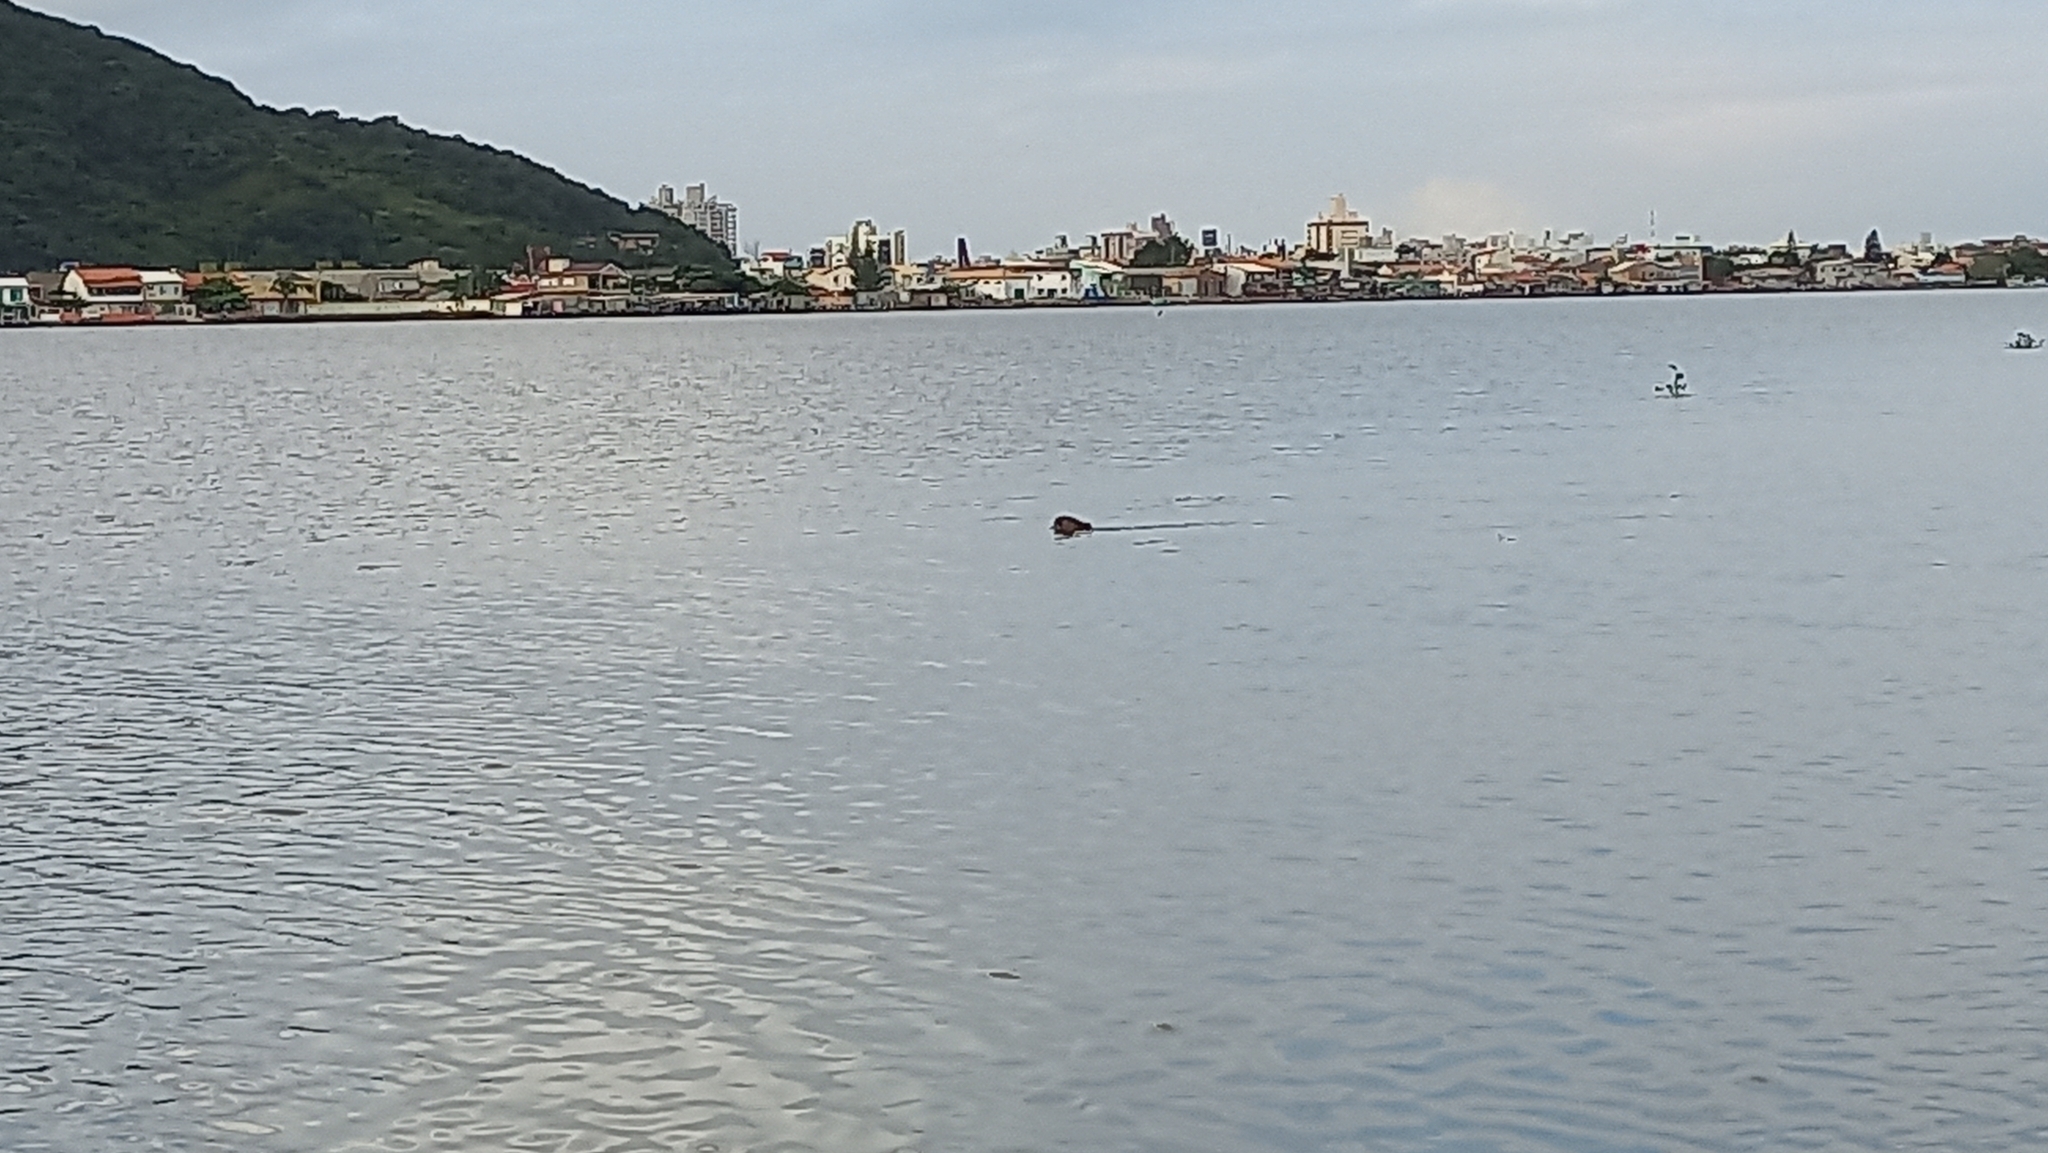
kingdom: Animalia
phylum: Chordata
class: Mammalia
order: Rodentia
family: Caviidae
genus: Hydrochoerus
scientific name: Hydrochoerus hydrochaeris
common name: Capybara
